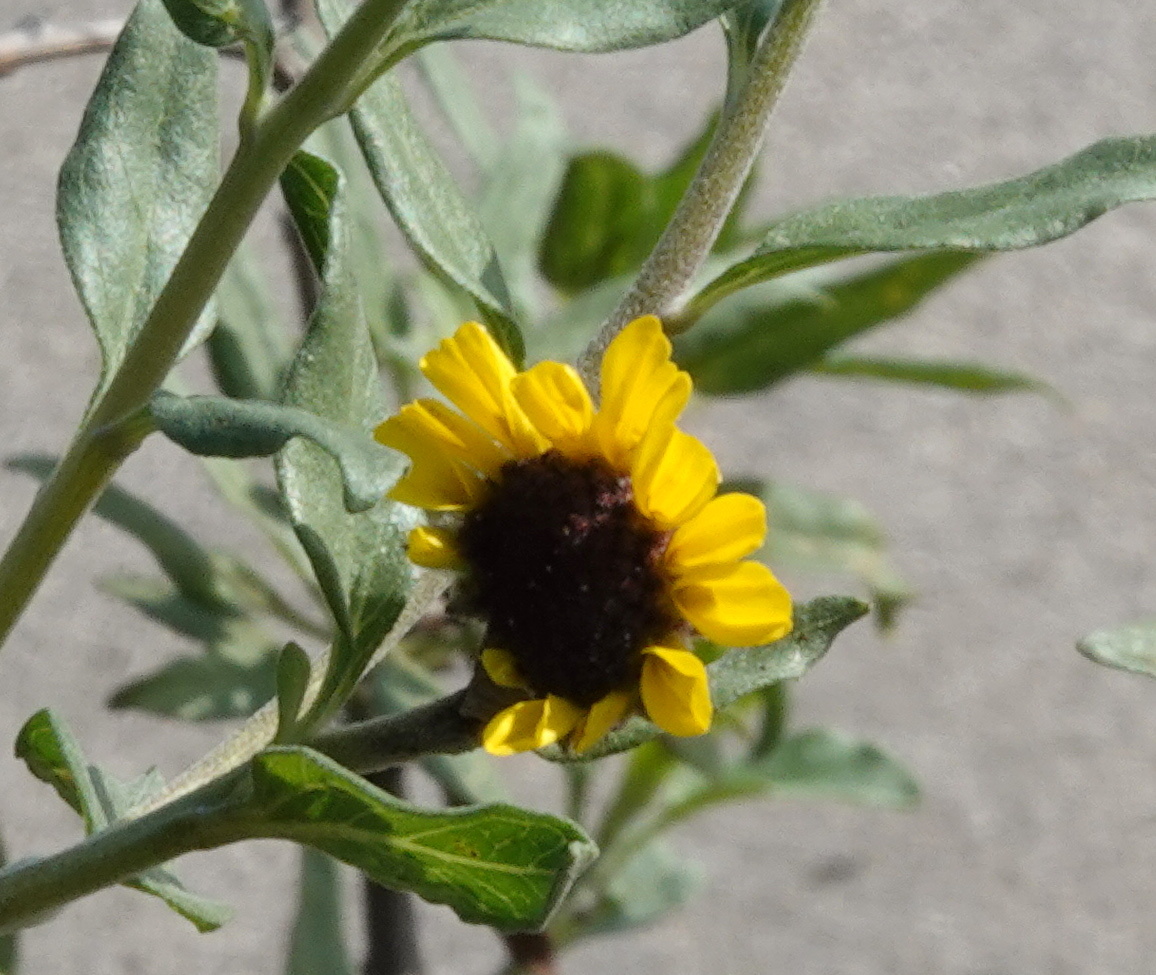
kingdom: Plantae
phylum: Tracheophyta
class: Magnoliopsida
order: Asterales
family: Asteraceae
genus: Encelia
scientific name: Encelia californica
